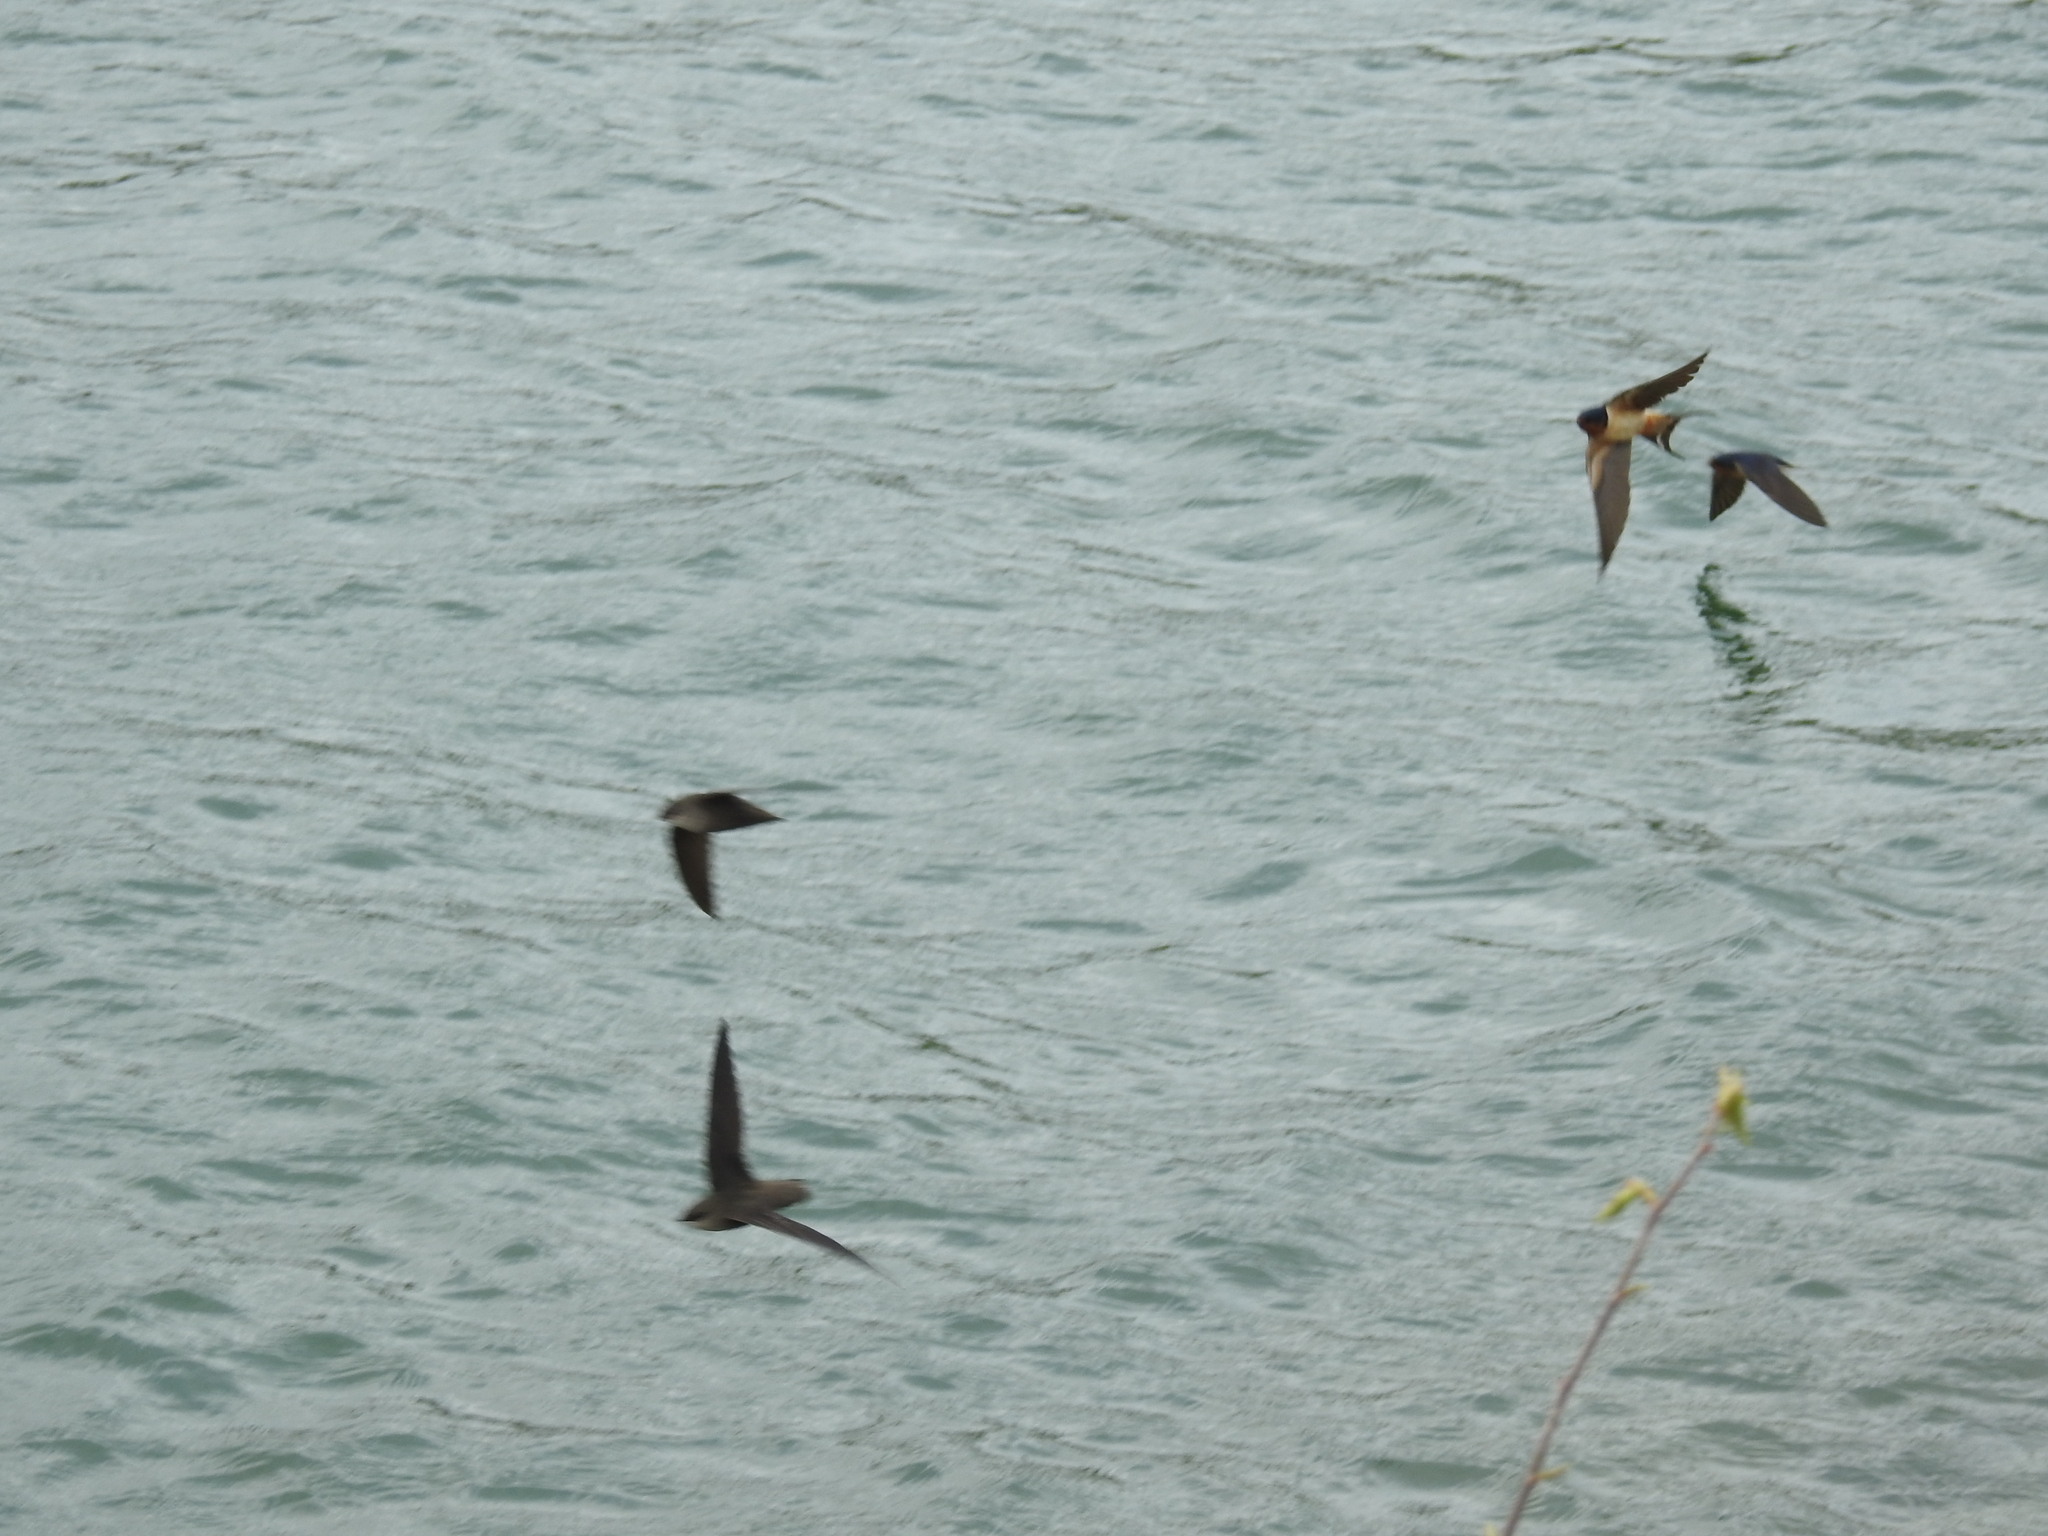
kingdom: Animalia
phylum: Chordata
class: Aves
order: Apodiformes
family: Apodidae
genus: Chaetura
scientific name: Chaetura pelagica
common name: Chimney swift
